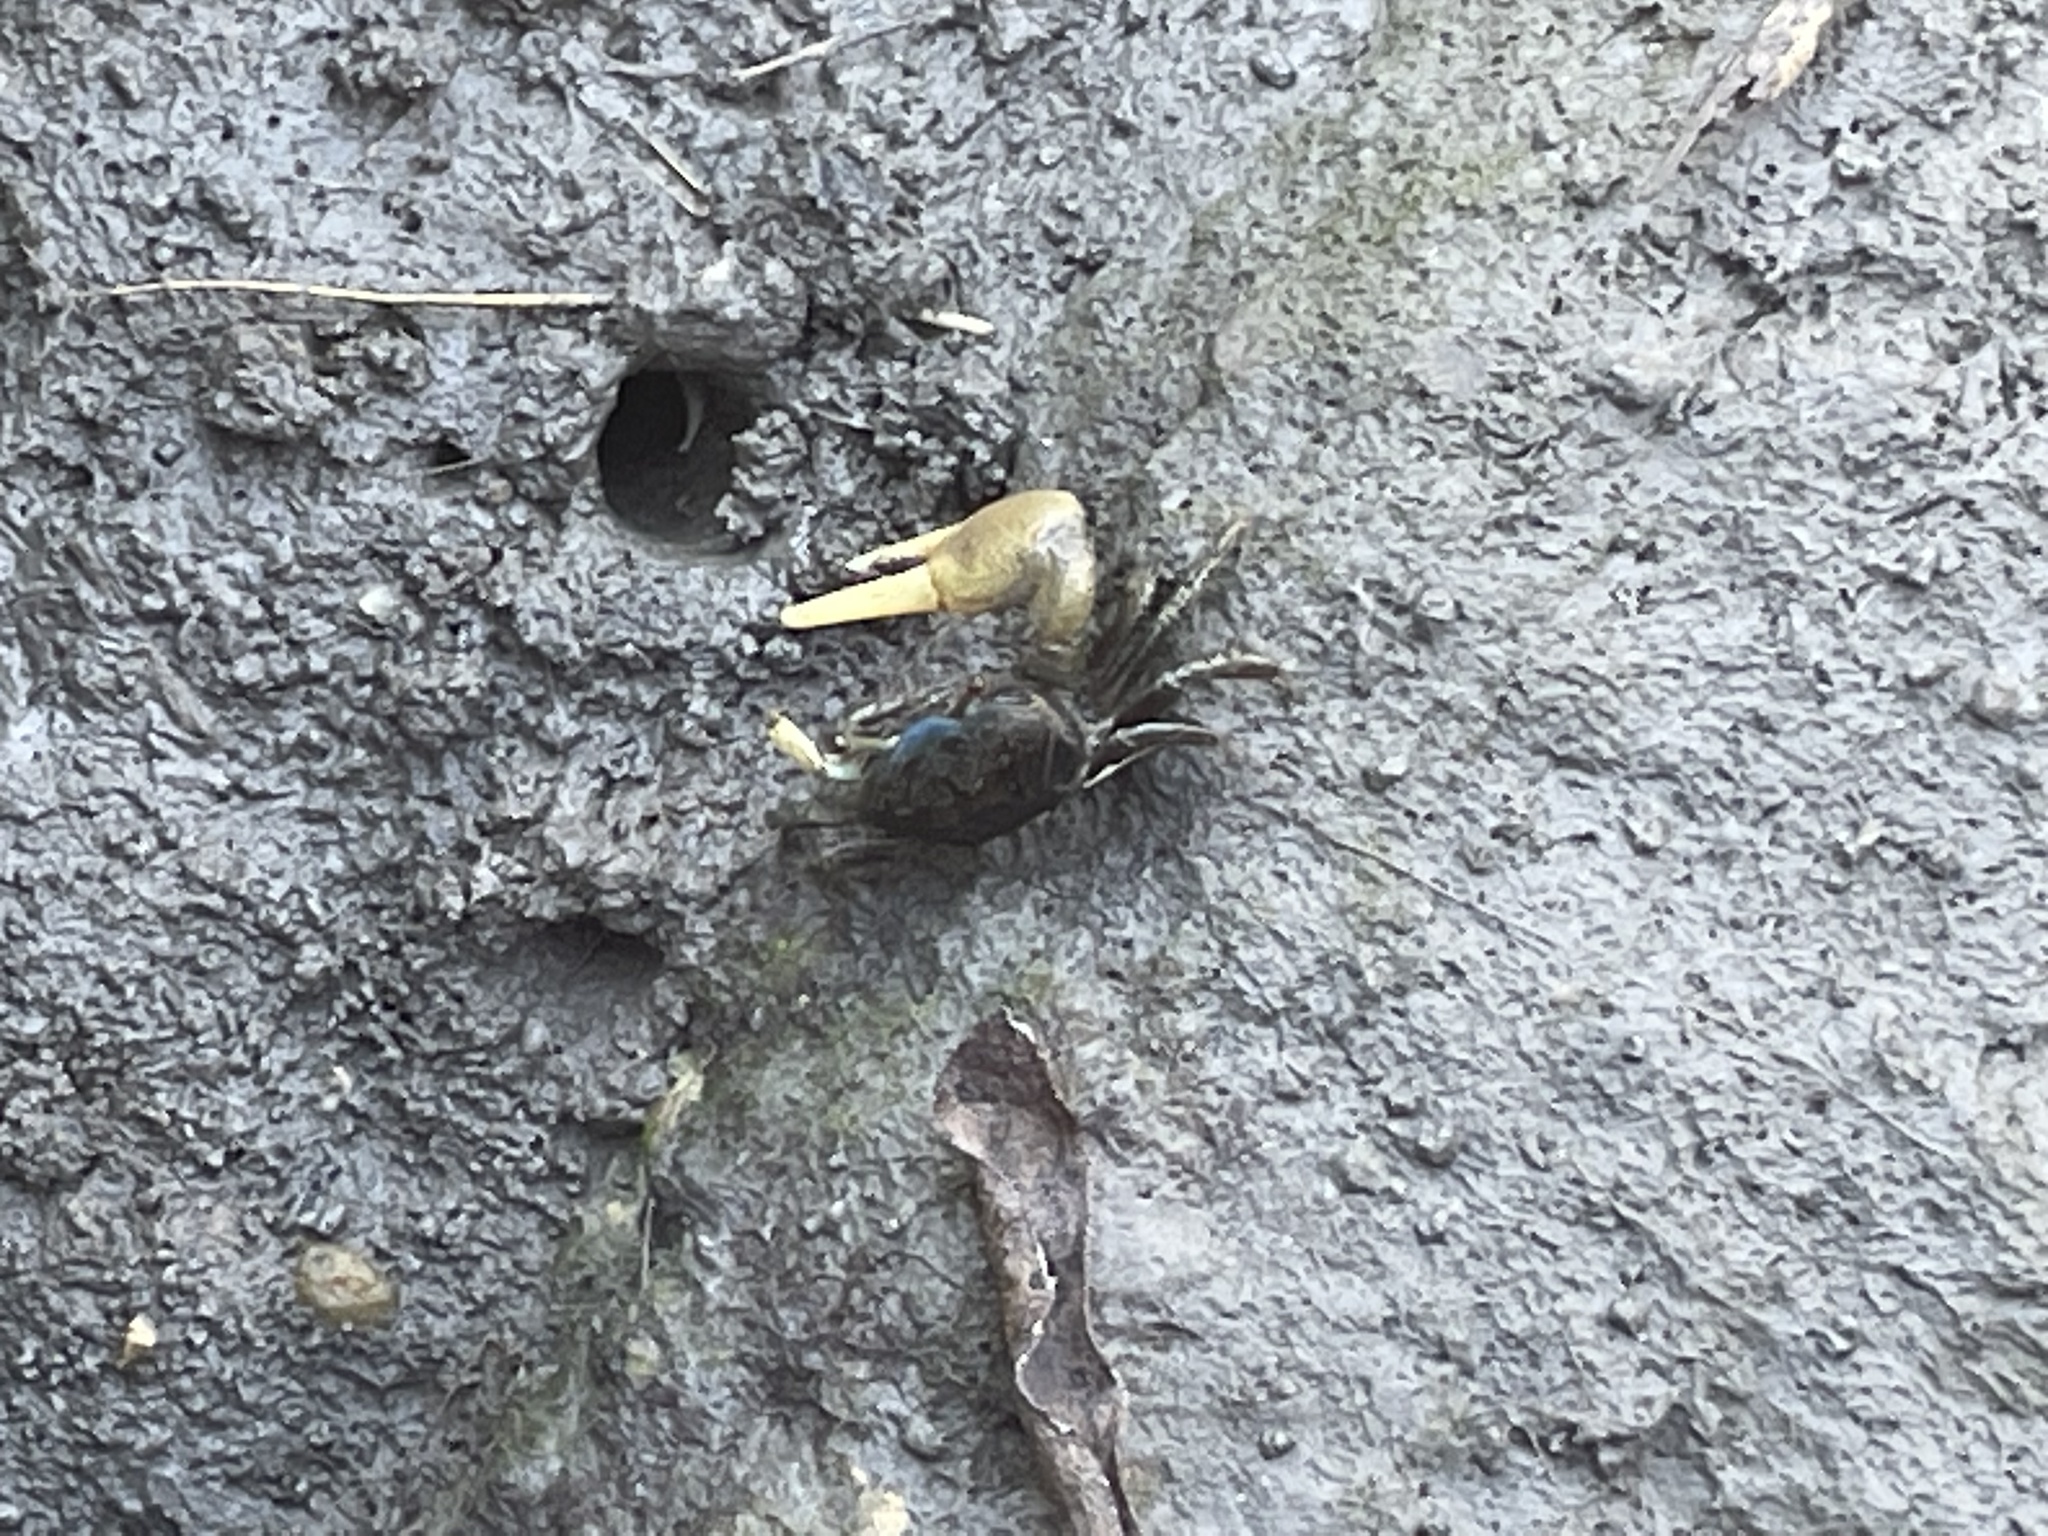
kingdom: Animalia
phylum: Arthropoda
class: Malacostraca
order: Decapoda
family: Ocypodidae
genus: Minuca
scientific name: Minuca pugnax
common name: Mud fiddler crab
